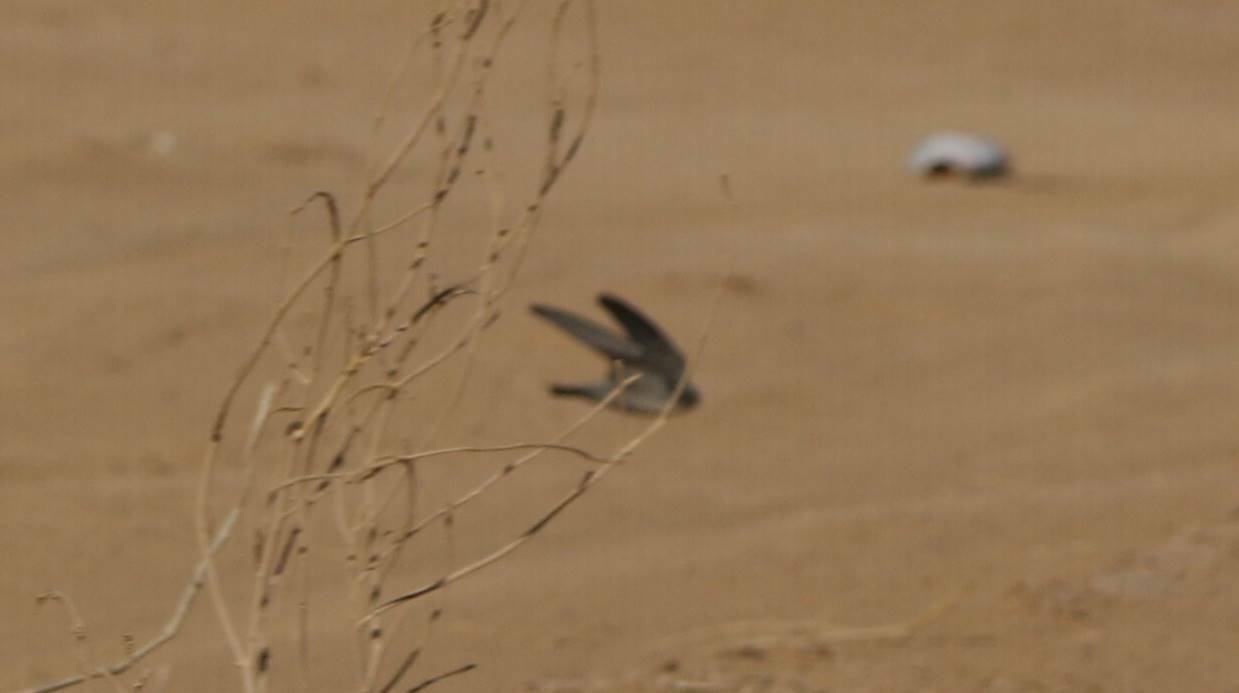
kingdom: Animalia
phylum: Chordata
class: Aves
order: Passeriformes
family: Hirundinidae
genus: Ptyonoprogne
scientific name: Ptyonoprogne fuligula
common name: Rock martin
